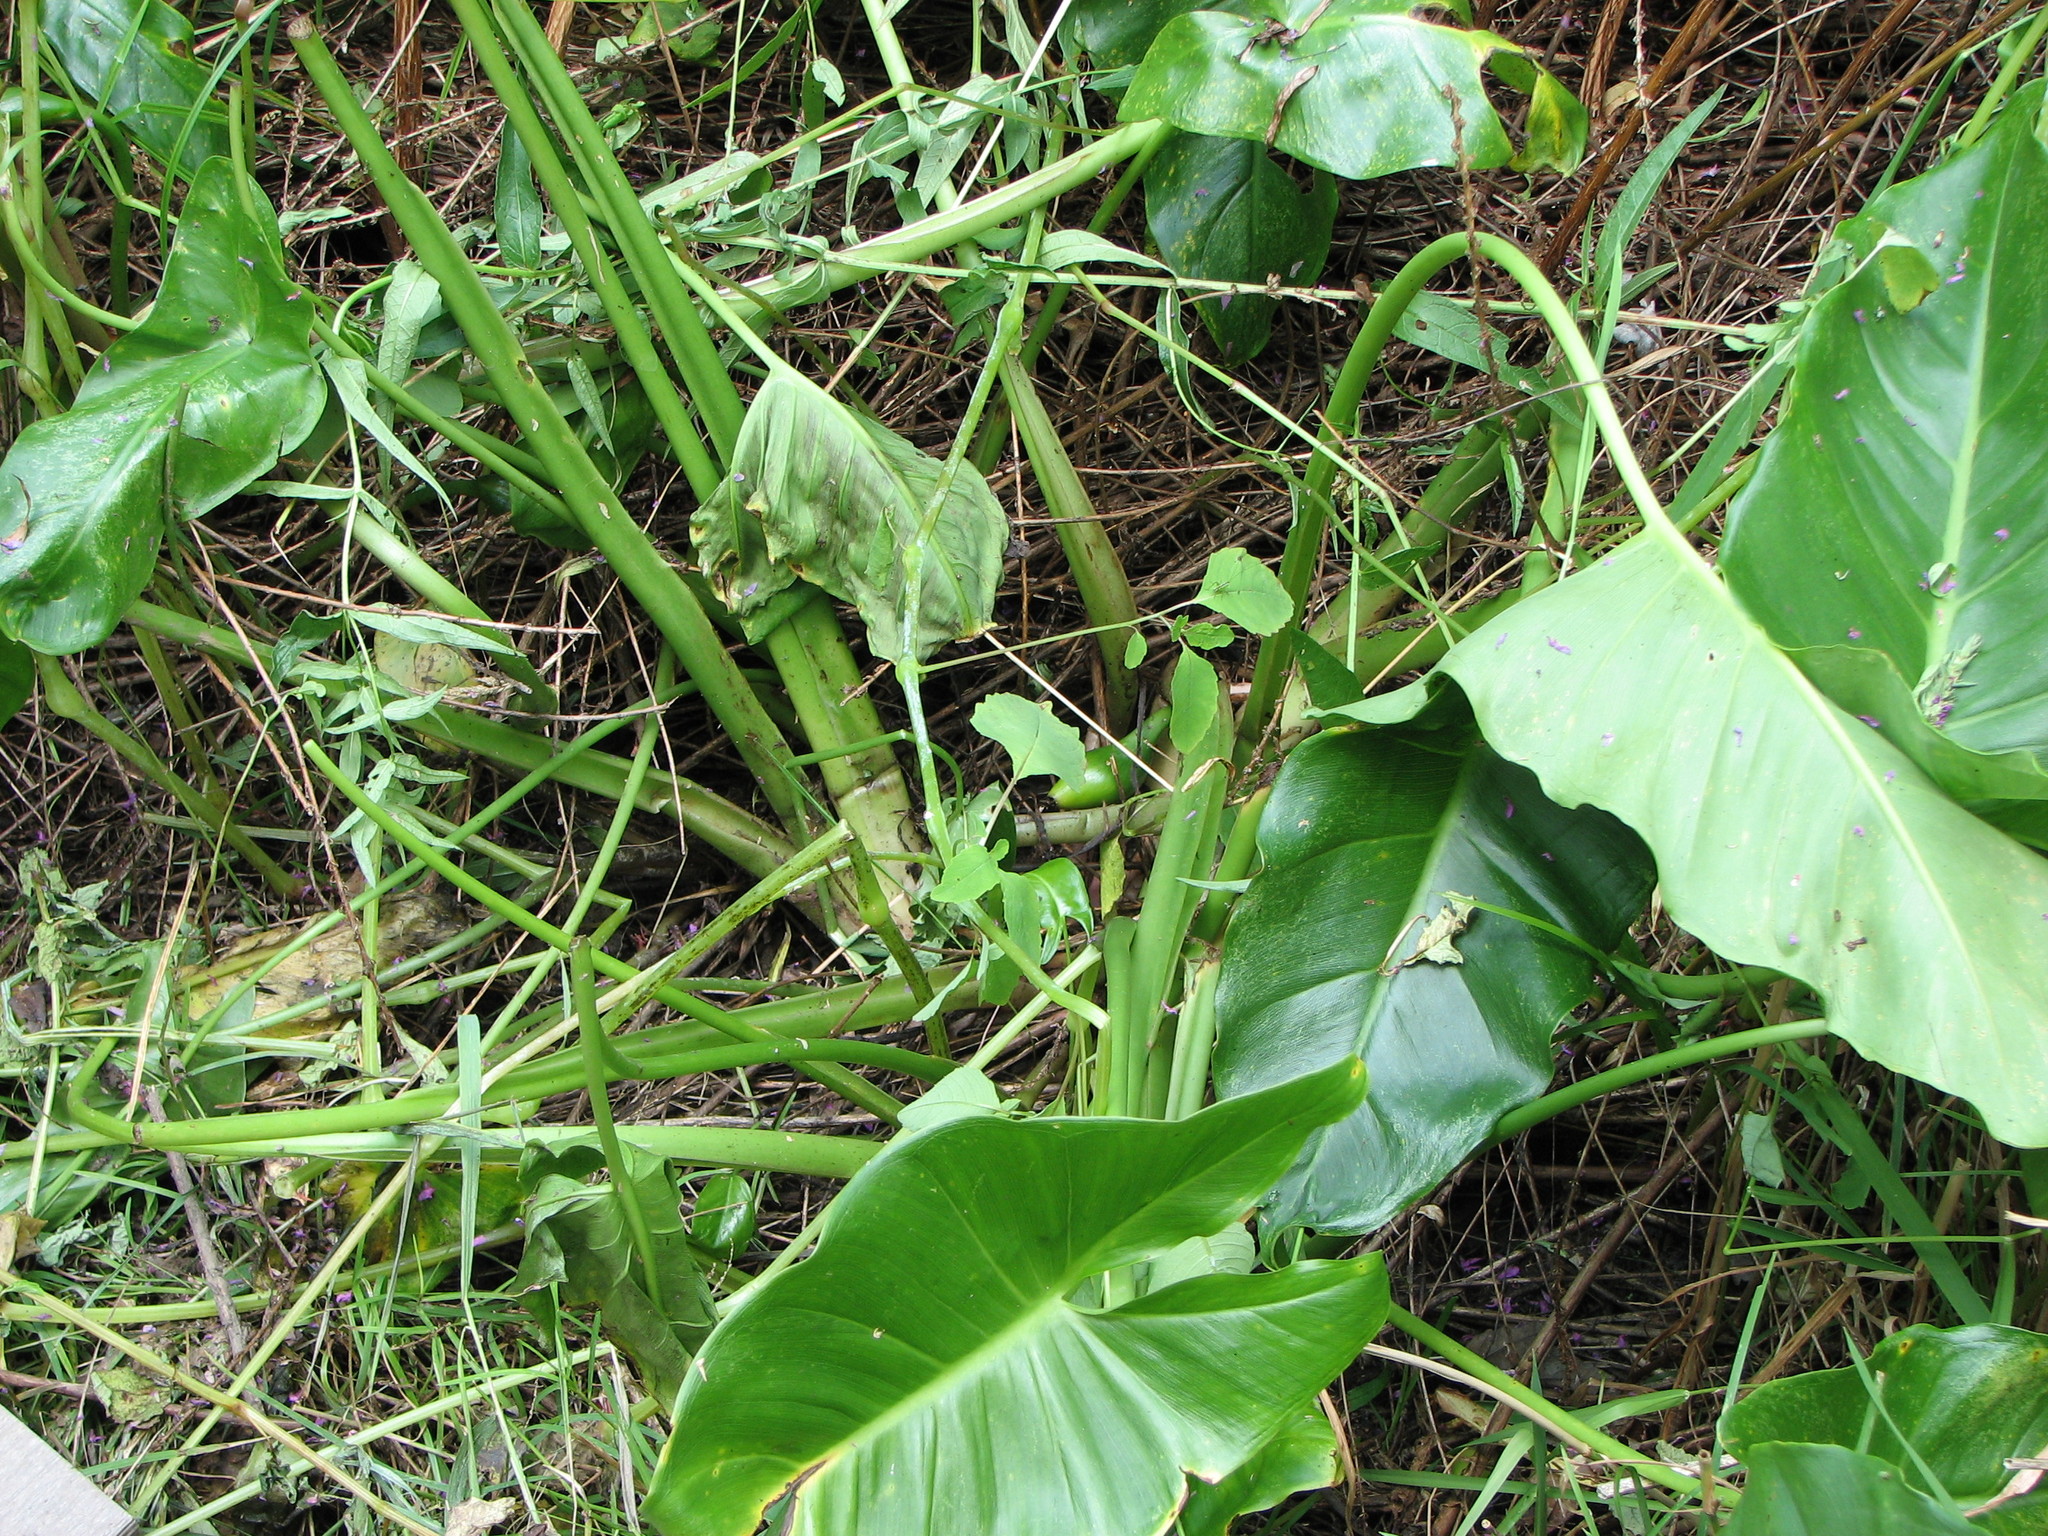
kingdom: Plantae
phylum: Tracheophyta
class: Liliopsida
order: Alismatales
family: Araceae
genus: Peltandra
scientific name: Peltandra virginica
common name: Arrow arum
